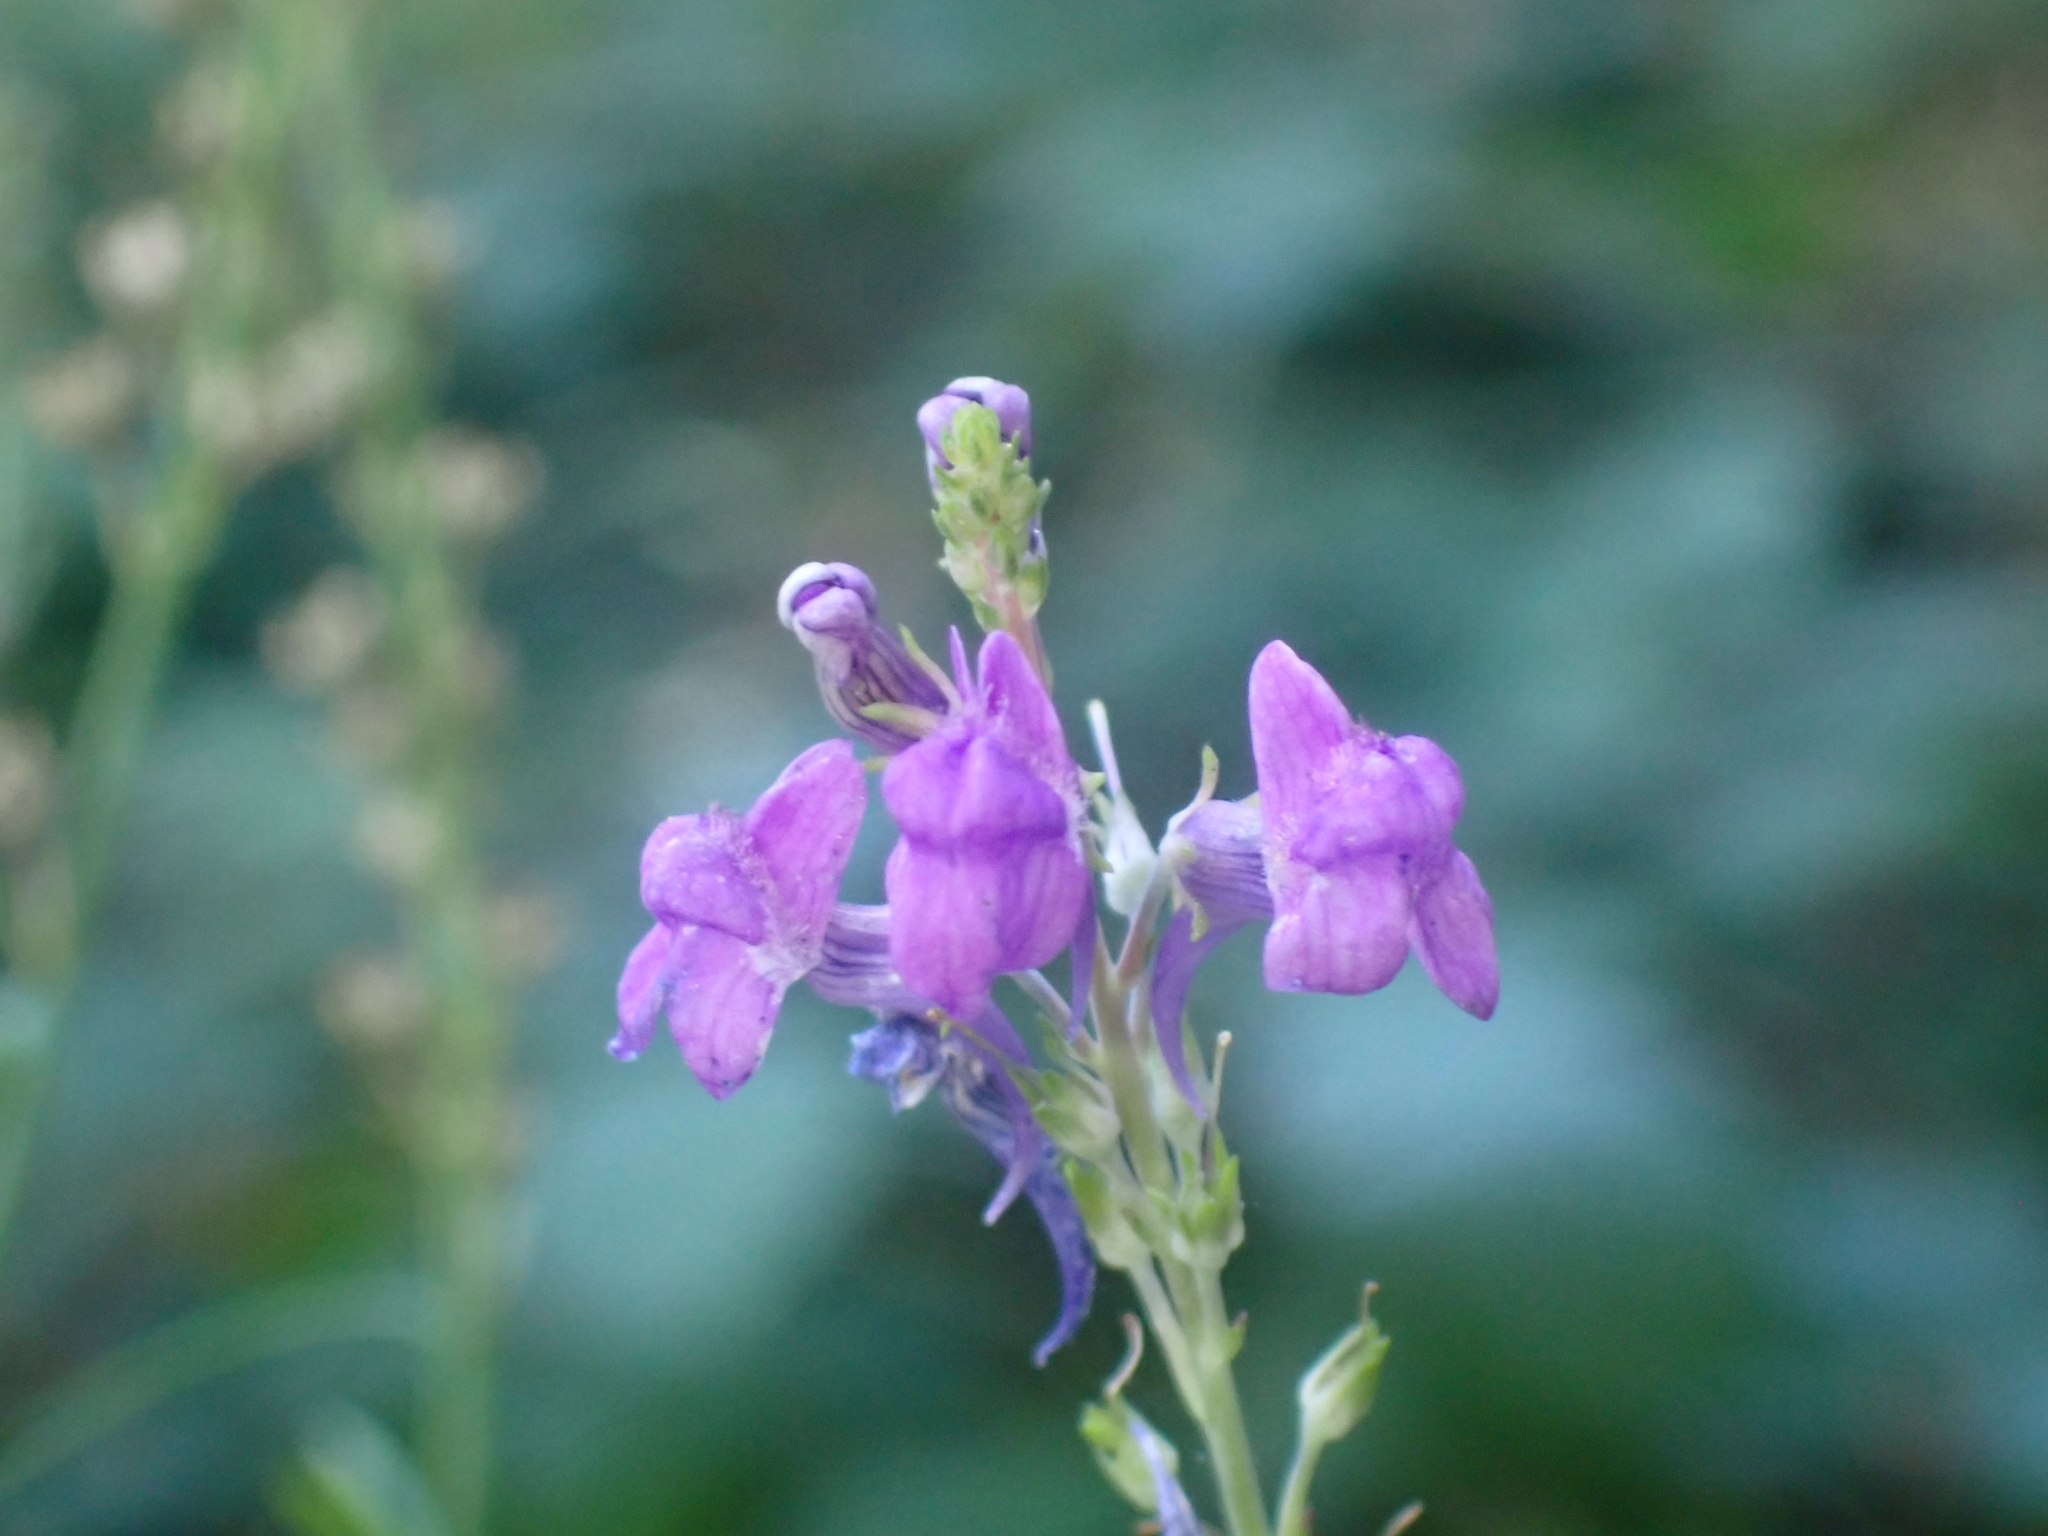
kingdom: Plantae
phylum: Tracheophyta
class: Magnoliopsida
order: Lamiales
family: Plantaginaceae
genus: Linaria
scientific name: Linaria purpurea
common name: Purple toadflax
